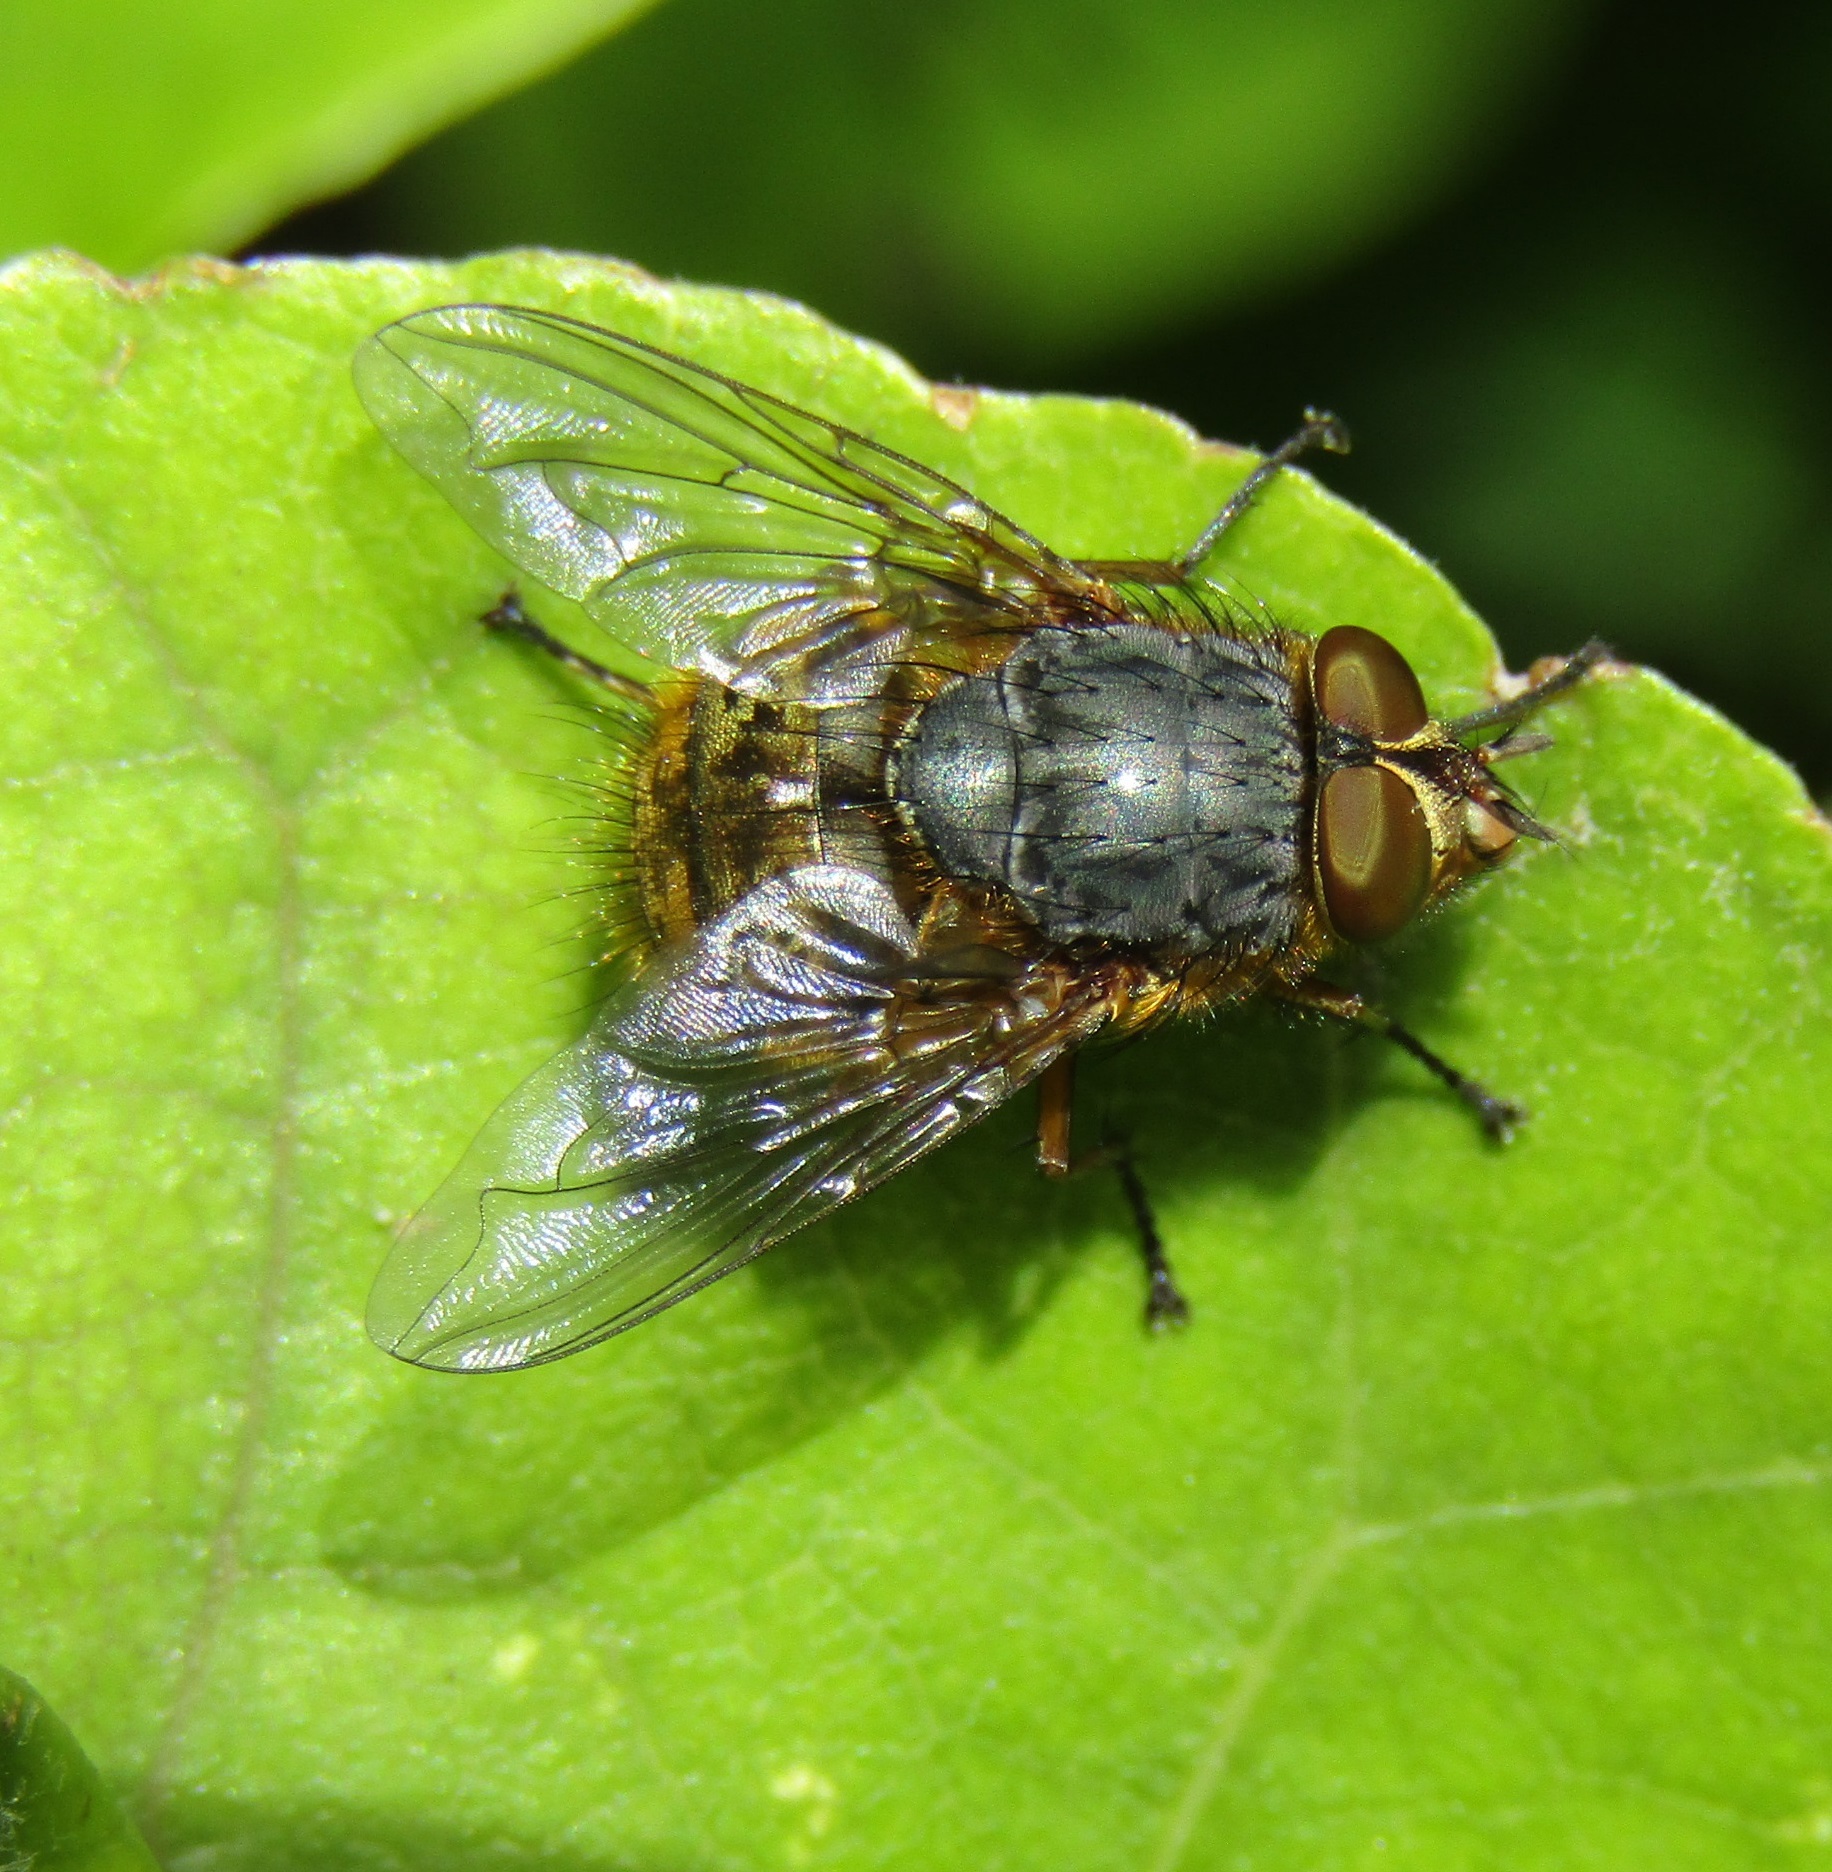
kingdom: Animalia
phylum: Arthropoda
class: Insecta
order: Diptera
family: Calliphoridae
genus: Calliphora
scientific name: Calliphora hilli
